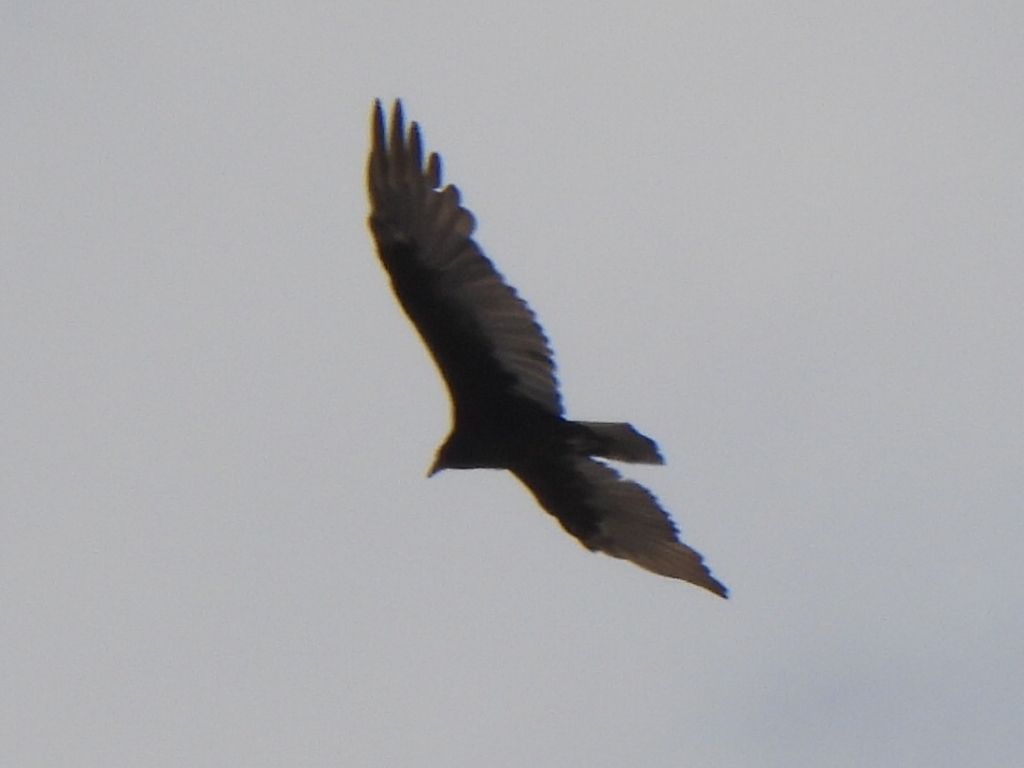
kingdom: Animalia
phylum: Chordata
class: Aves
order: Accipitriformes
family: Cathartidae
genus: Cathartes
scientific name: Cathartes aura
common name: Turkey vulture
